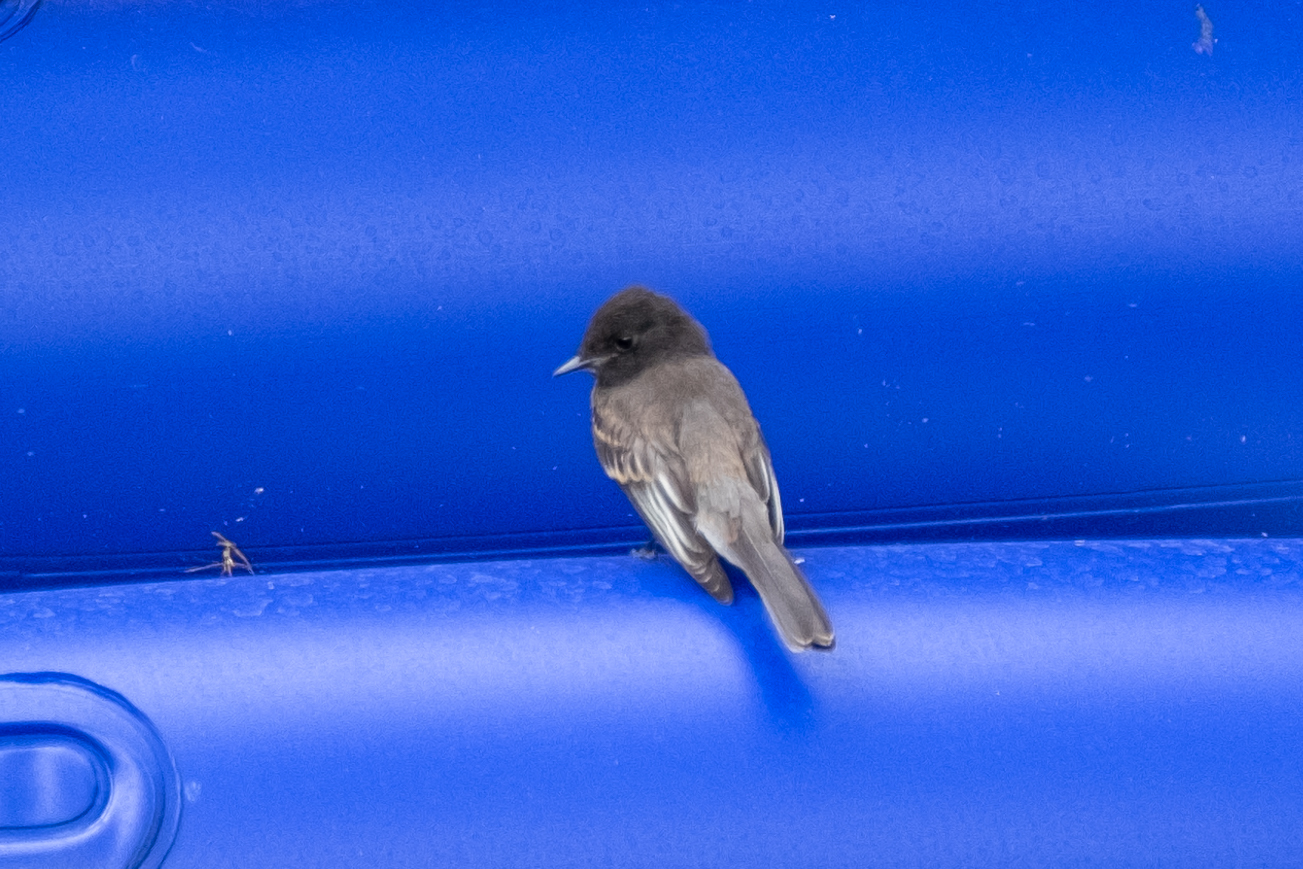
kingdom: Animalia
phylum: Chordata
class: Aves
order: Passeriformes
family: Tyrannidae
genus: Sayornis
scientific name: Sayornis nigricans
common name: Black phoebe
